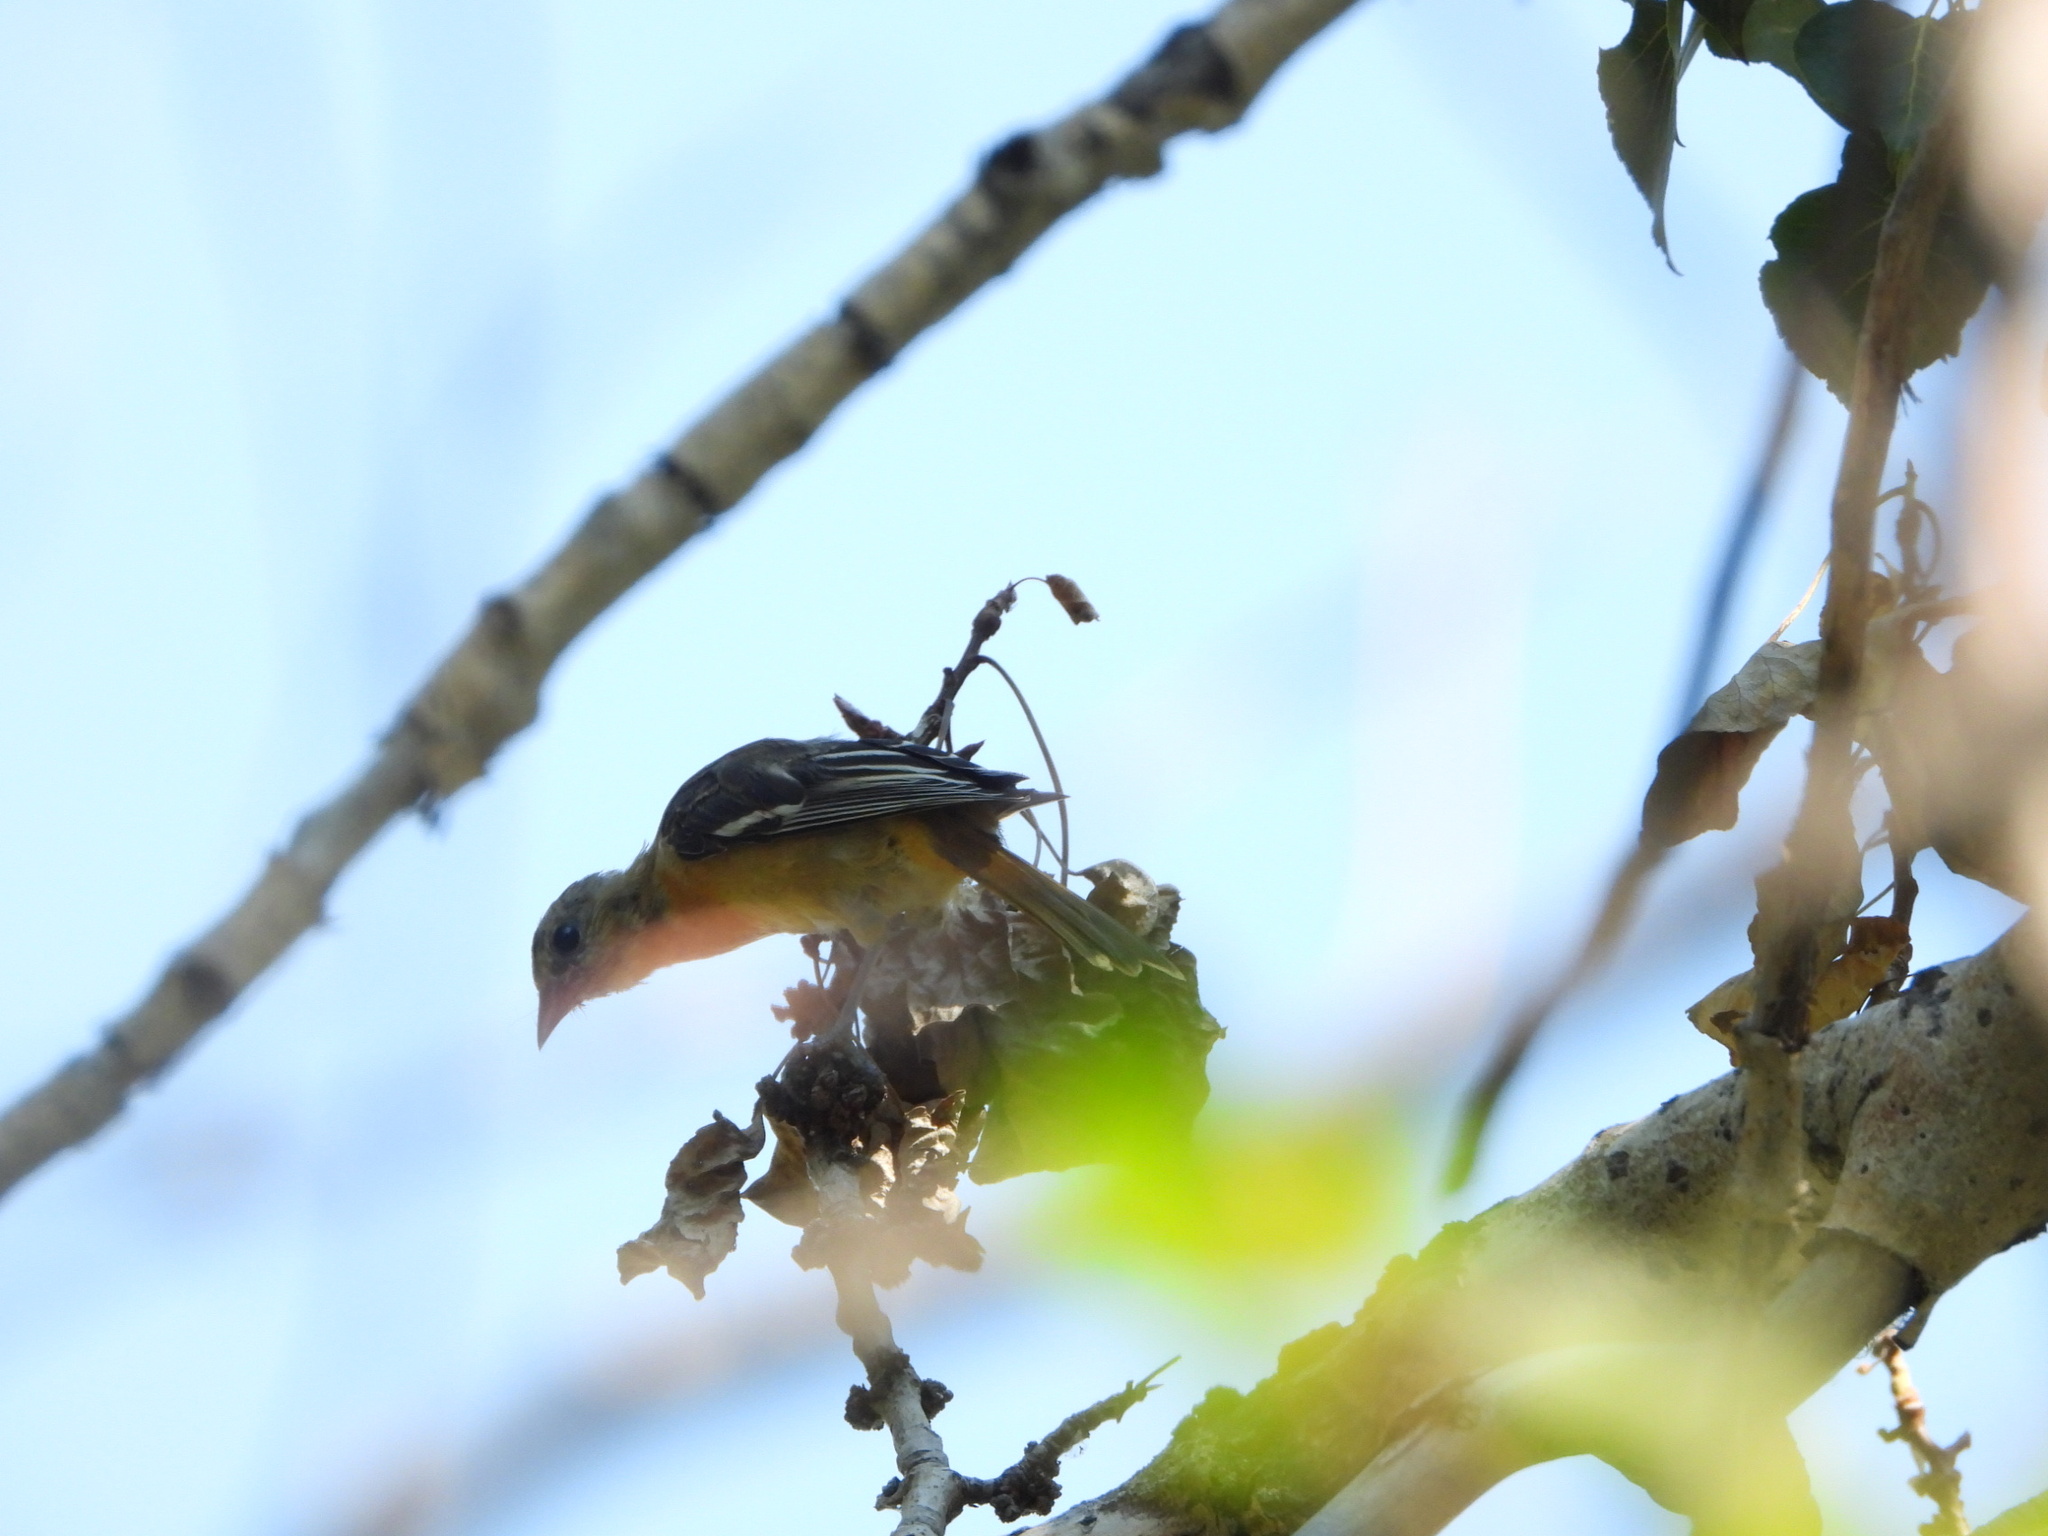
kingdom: Animalia
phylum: Chordata
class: Aves
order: Passeriformes
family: Icteridae
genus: Icterus
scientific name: Icterus galbula
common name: Baltimore oriole
